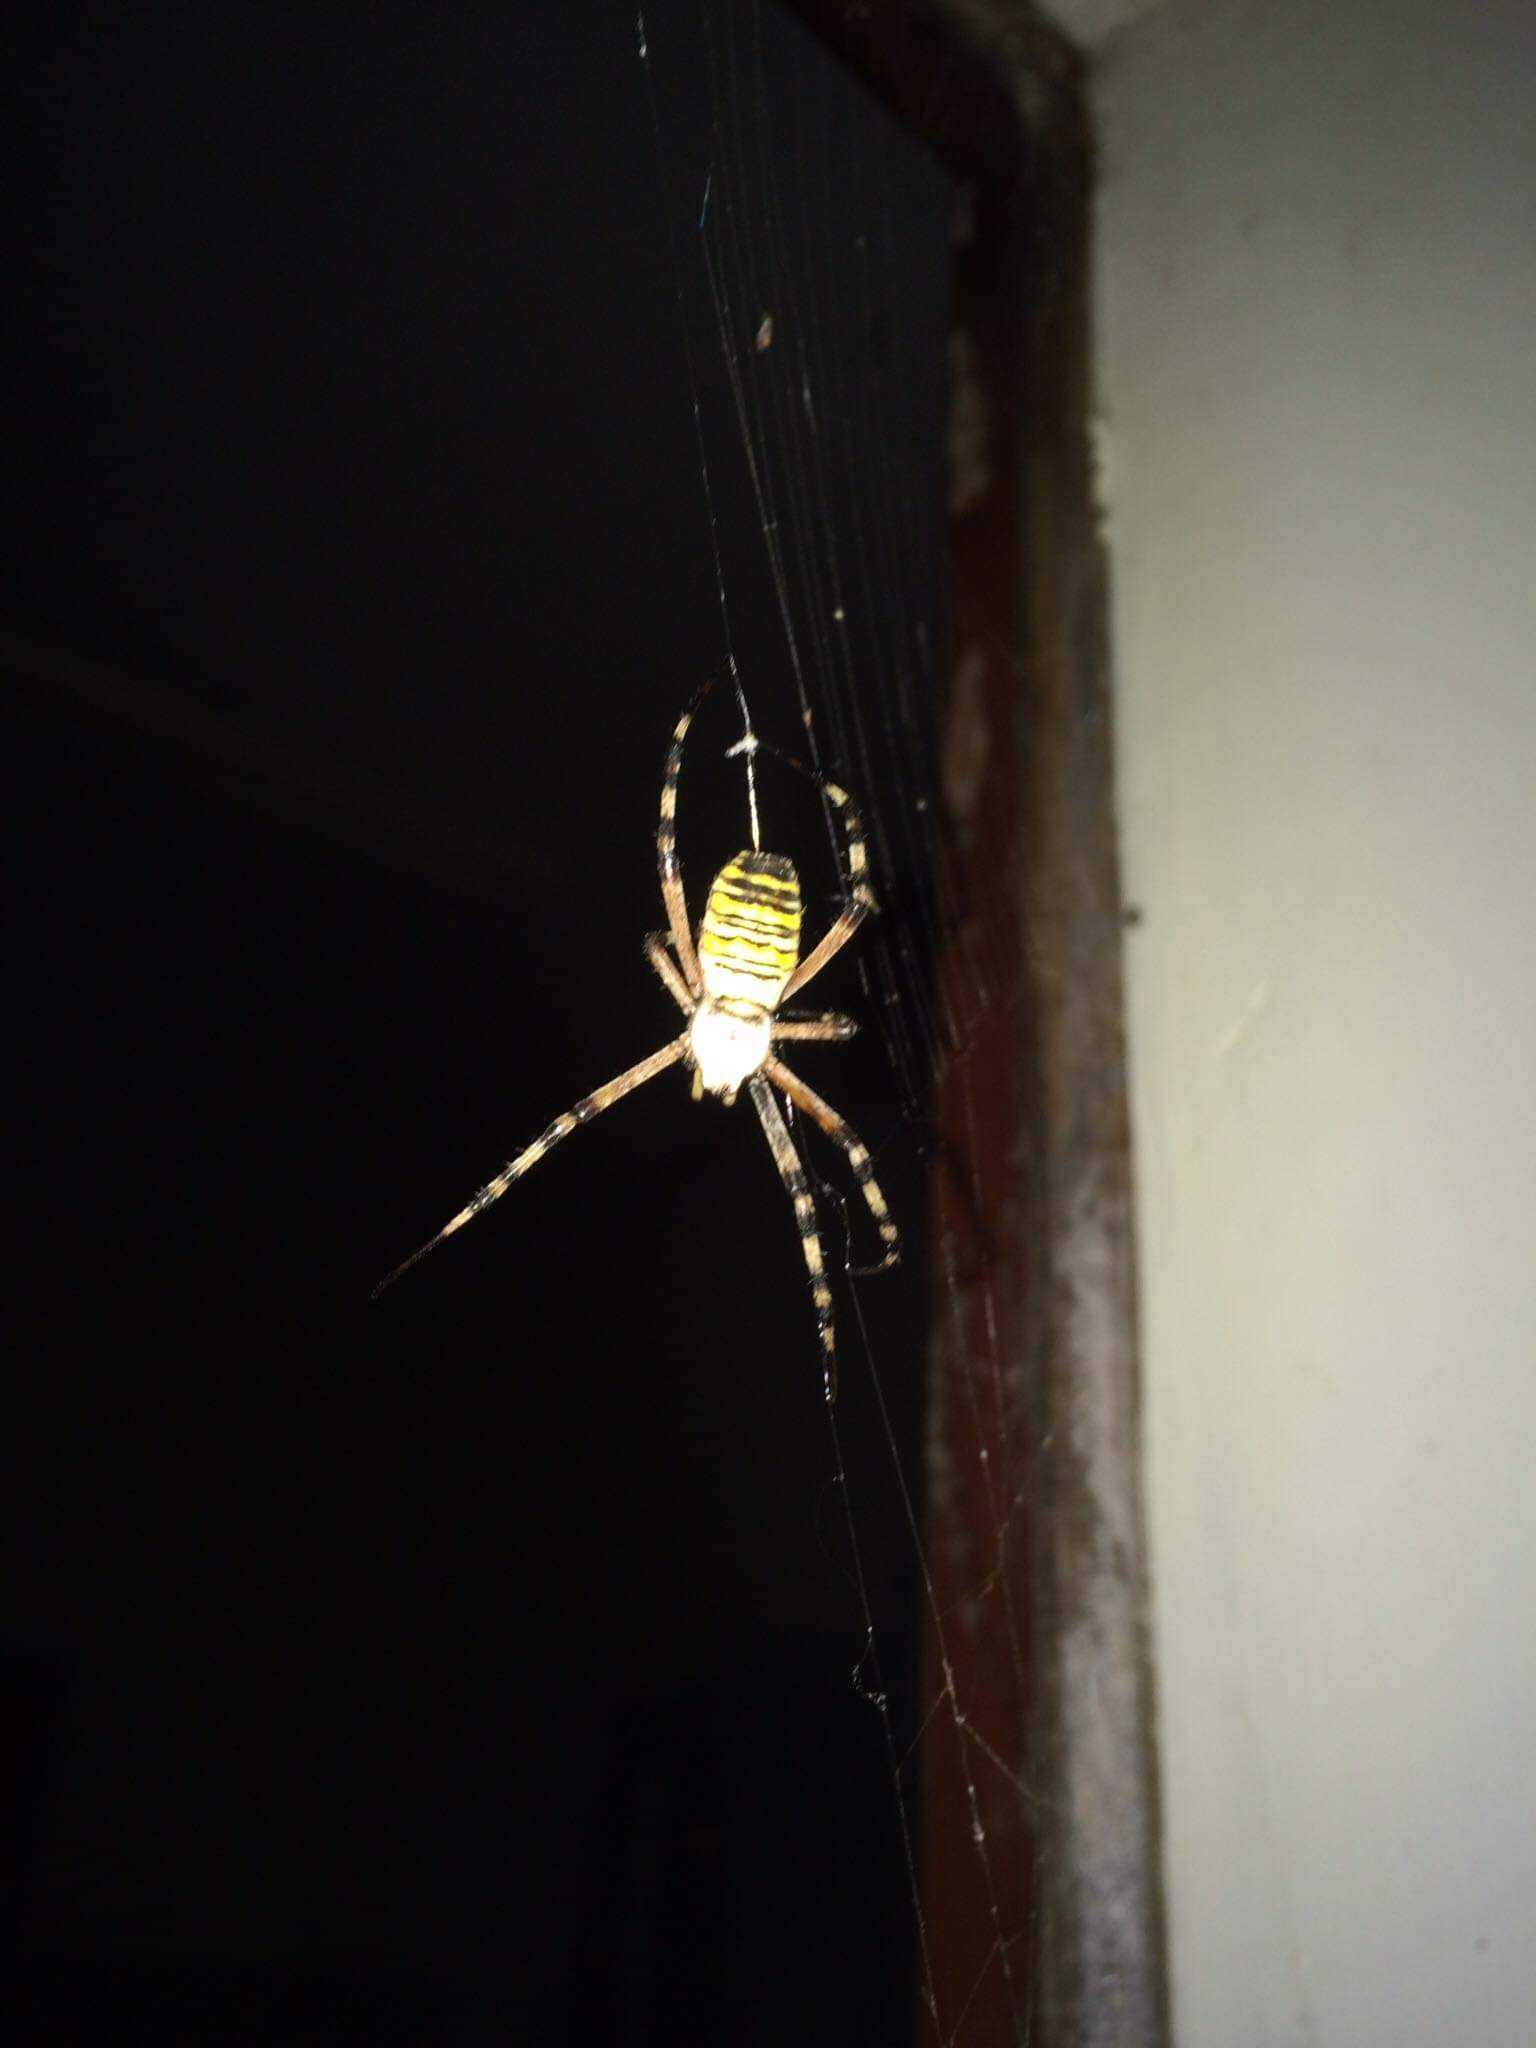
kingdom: Animalia
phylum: Arthropoda
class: Arachnida
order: Araneae
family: Araneidae
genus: Argiope
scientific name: Argiope bruennichi
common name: Wasp spider
